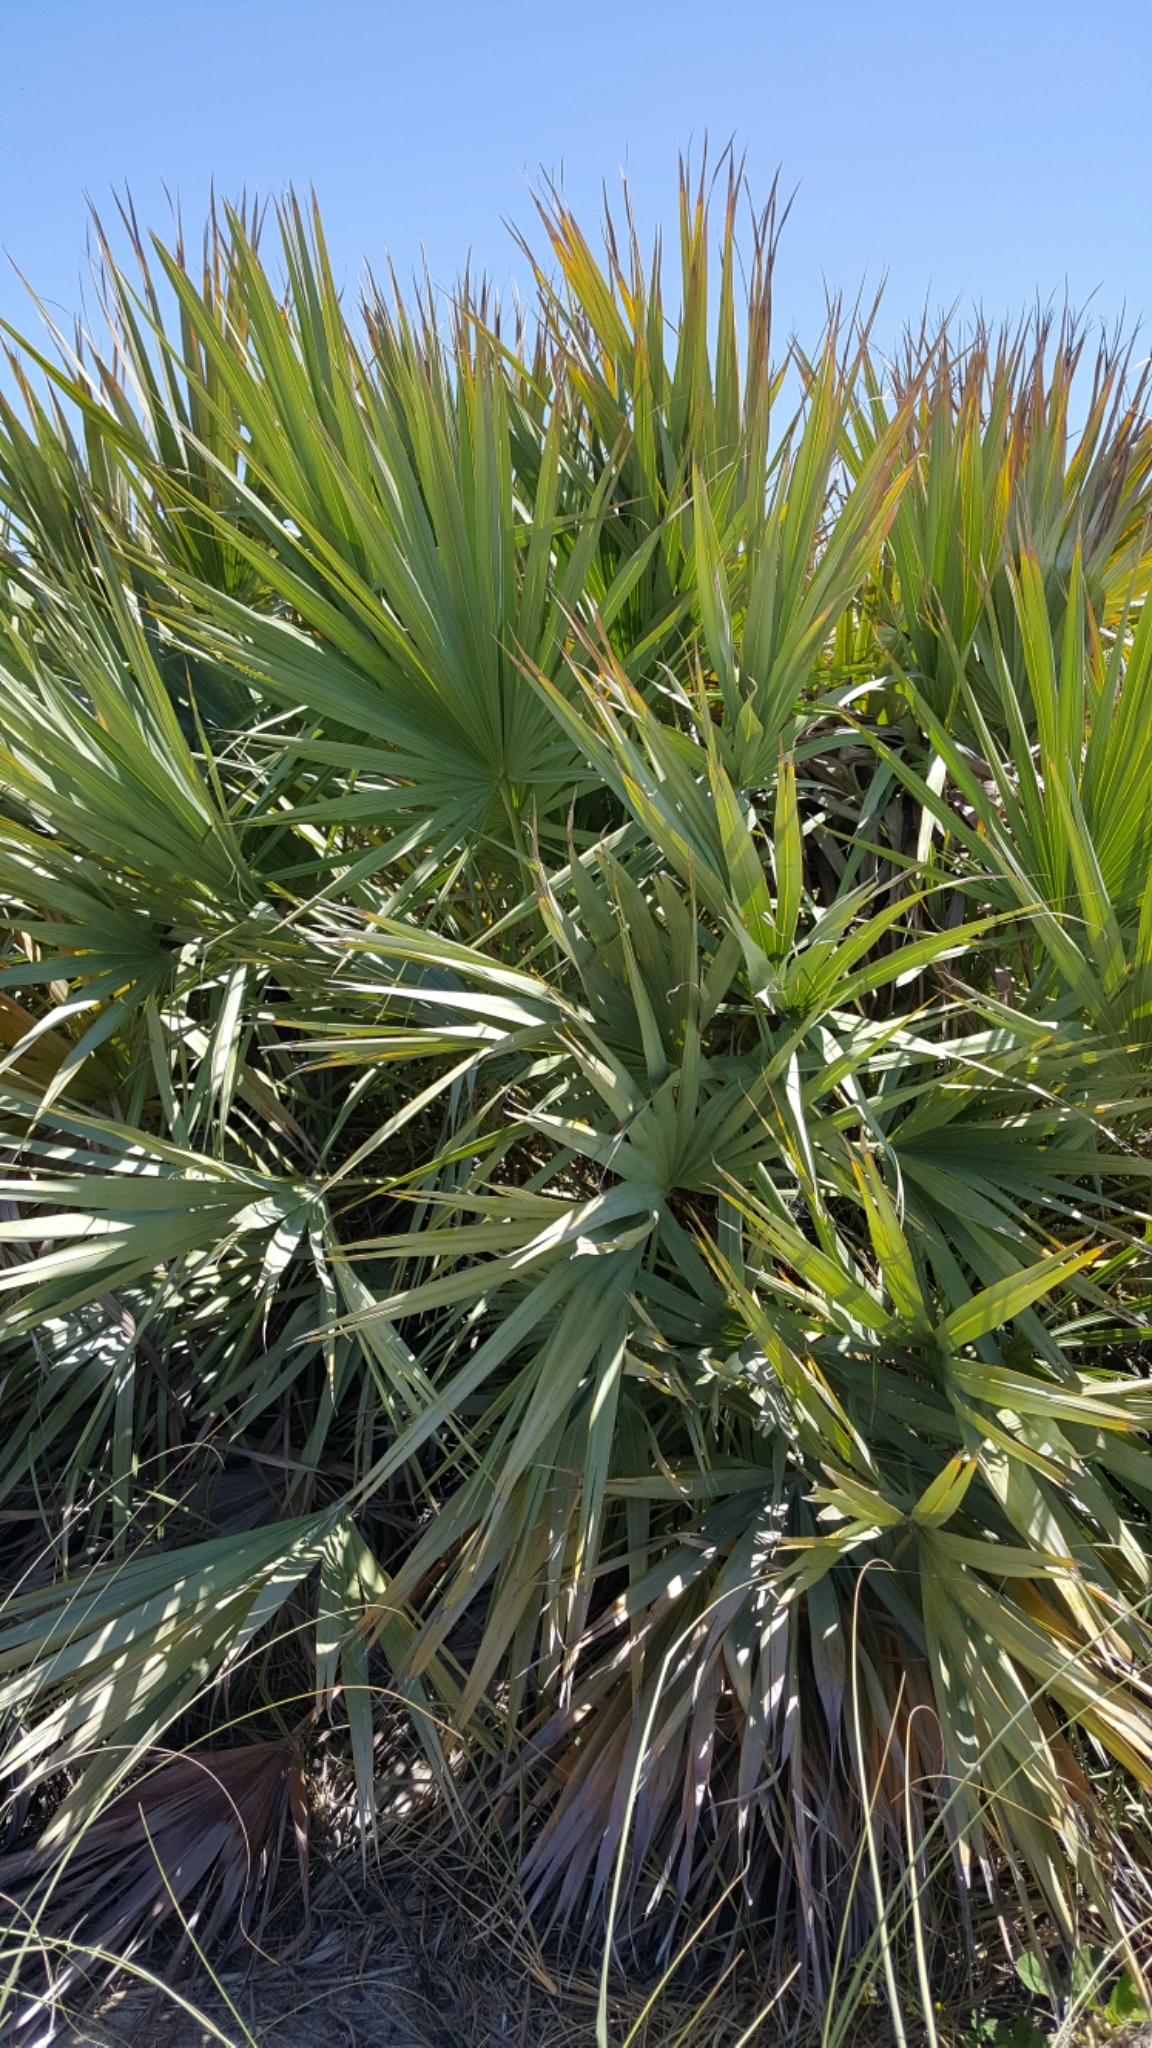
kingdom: Plantae
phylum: Tracheophyta
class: Liliopsida
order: Arecales
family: Arecaceae
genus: Serenoa
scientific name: Serenoa repens
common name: Saw-palmetto
